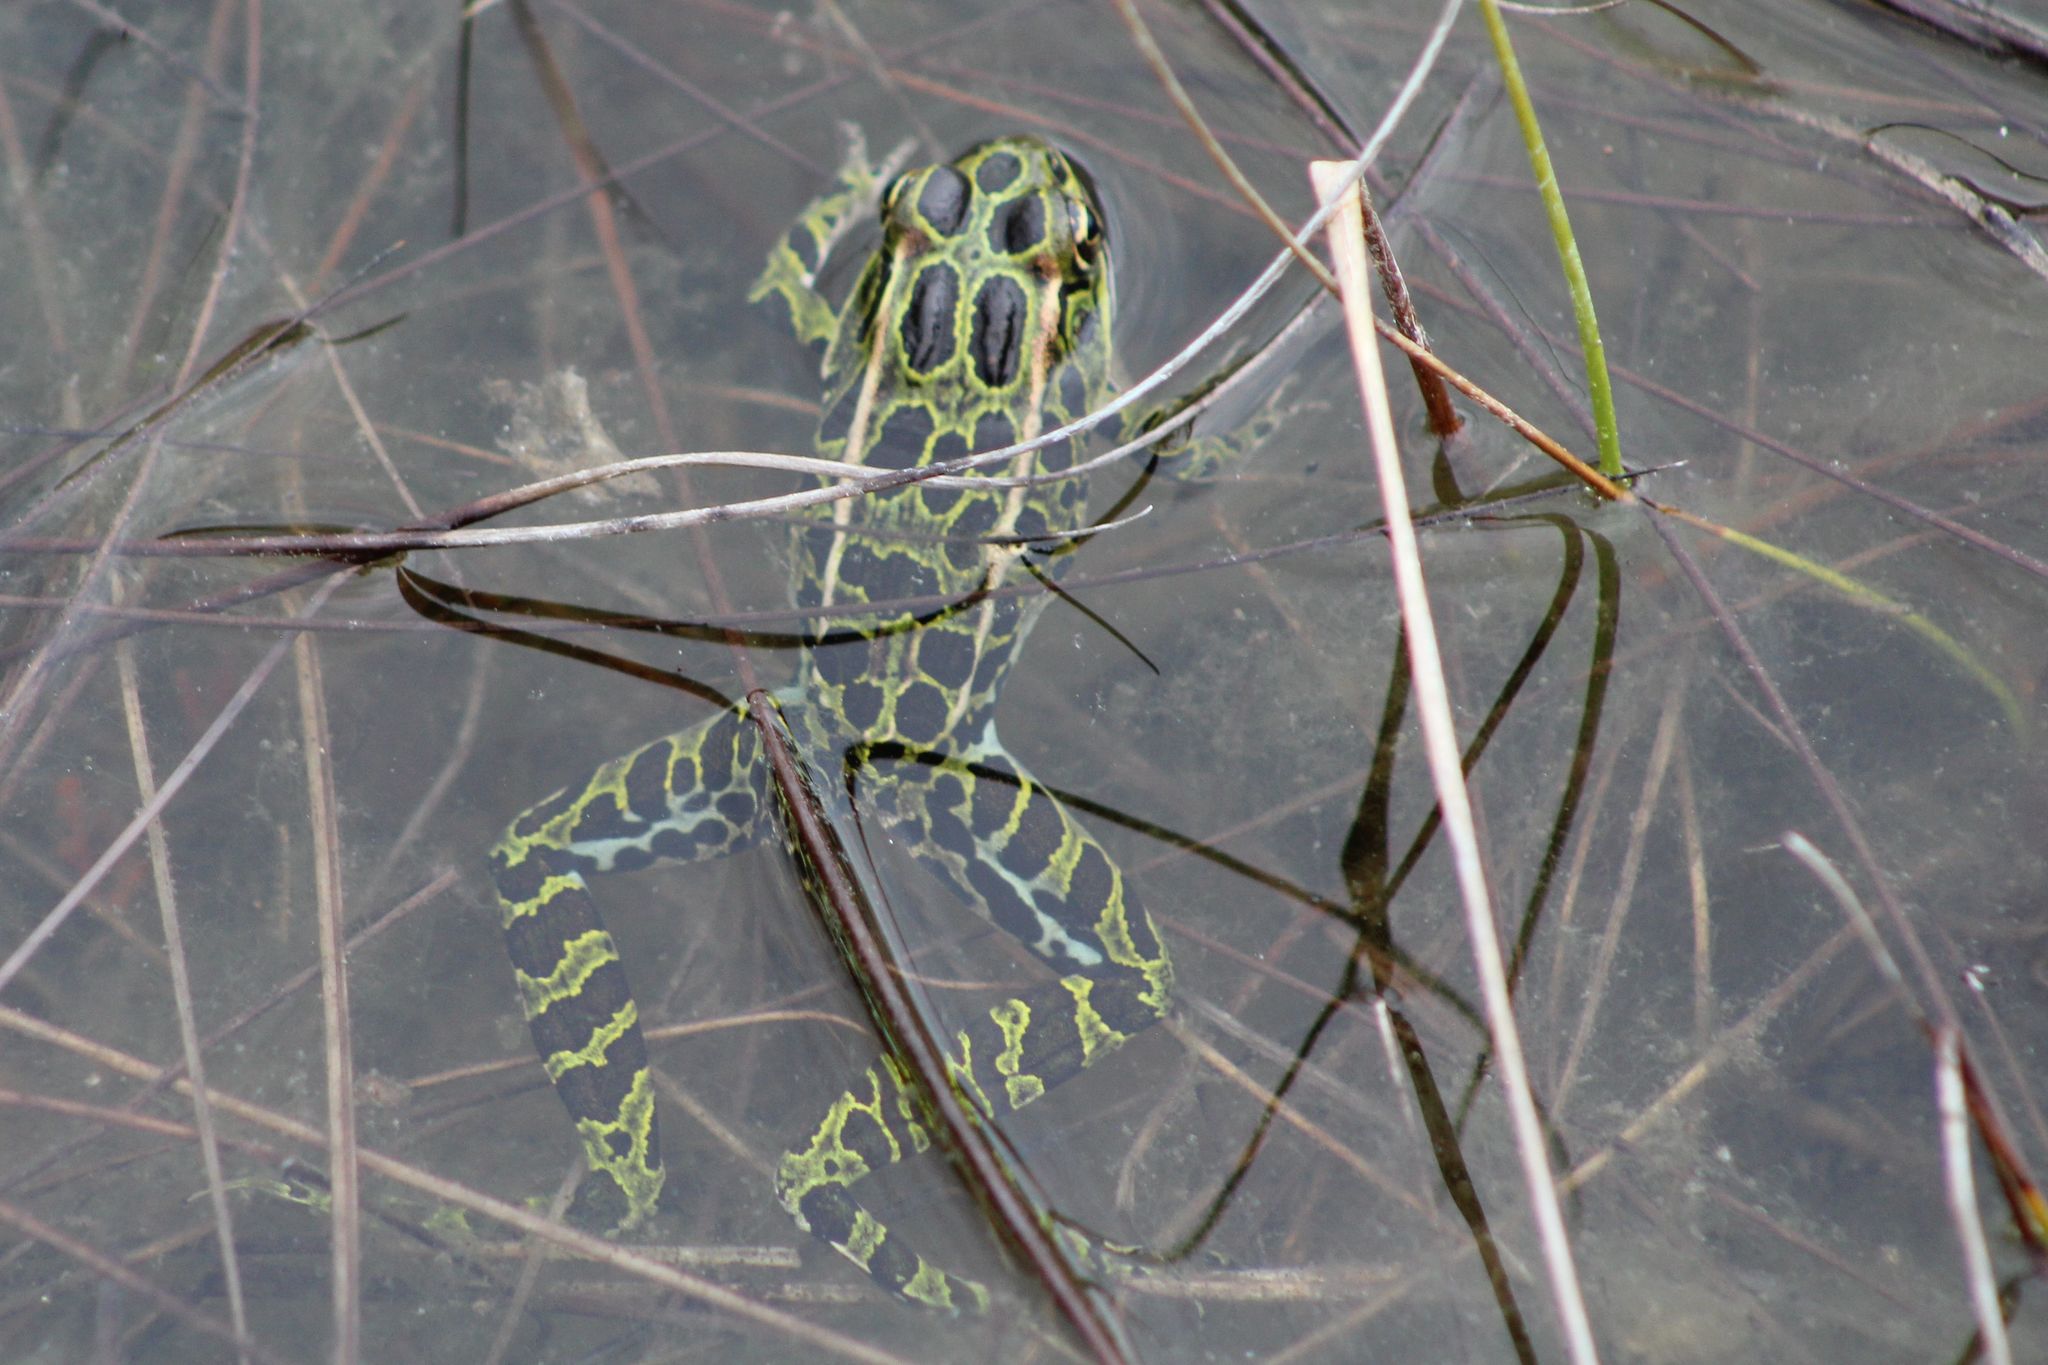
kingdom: Animalia
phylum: Chordata
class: Amphibia
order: Anura
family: Ranidae
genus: Lithobates
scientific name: Lithobates pipiens
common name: Northern leopard frog
